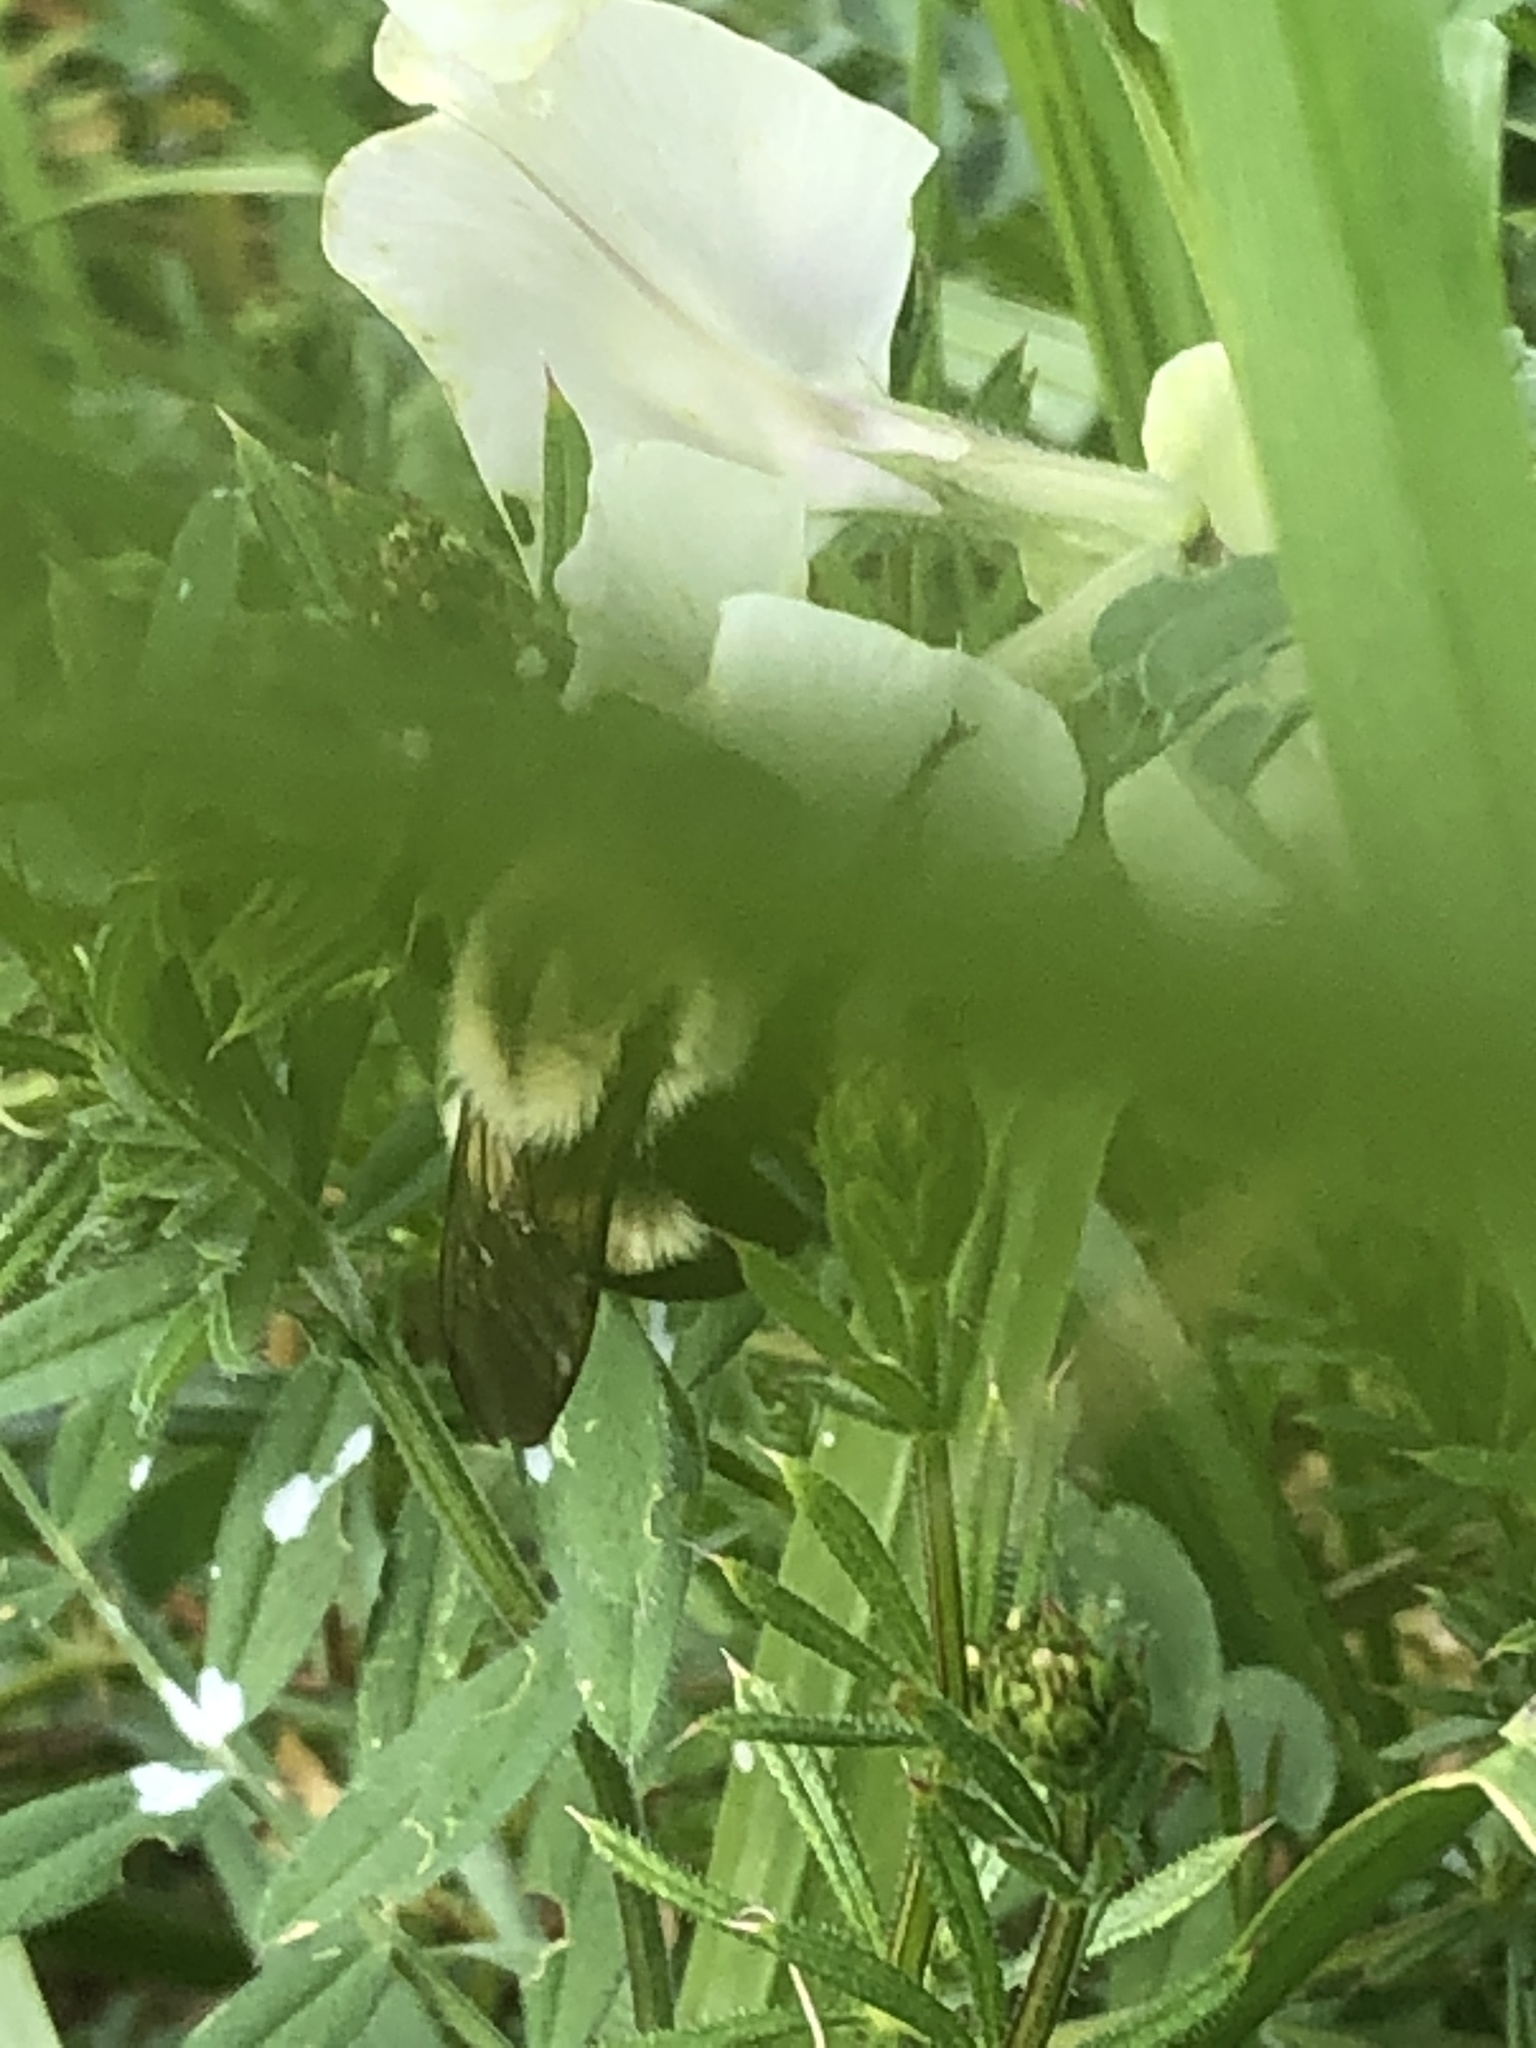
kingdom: Animalia
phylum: Arthropoda
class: Insecta
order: Hymenoptera
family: Apidae
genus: Bombus
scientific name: Bombus impatiens
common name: Common eastern bumble bee
